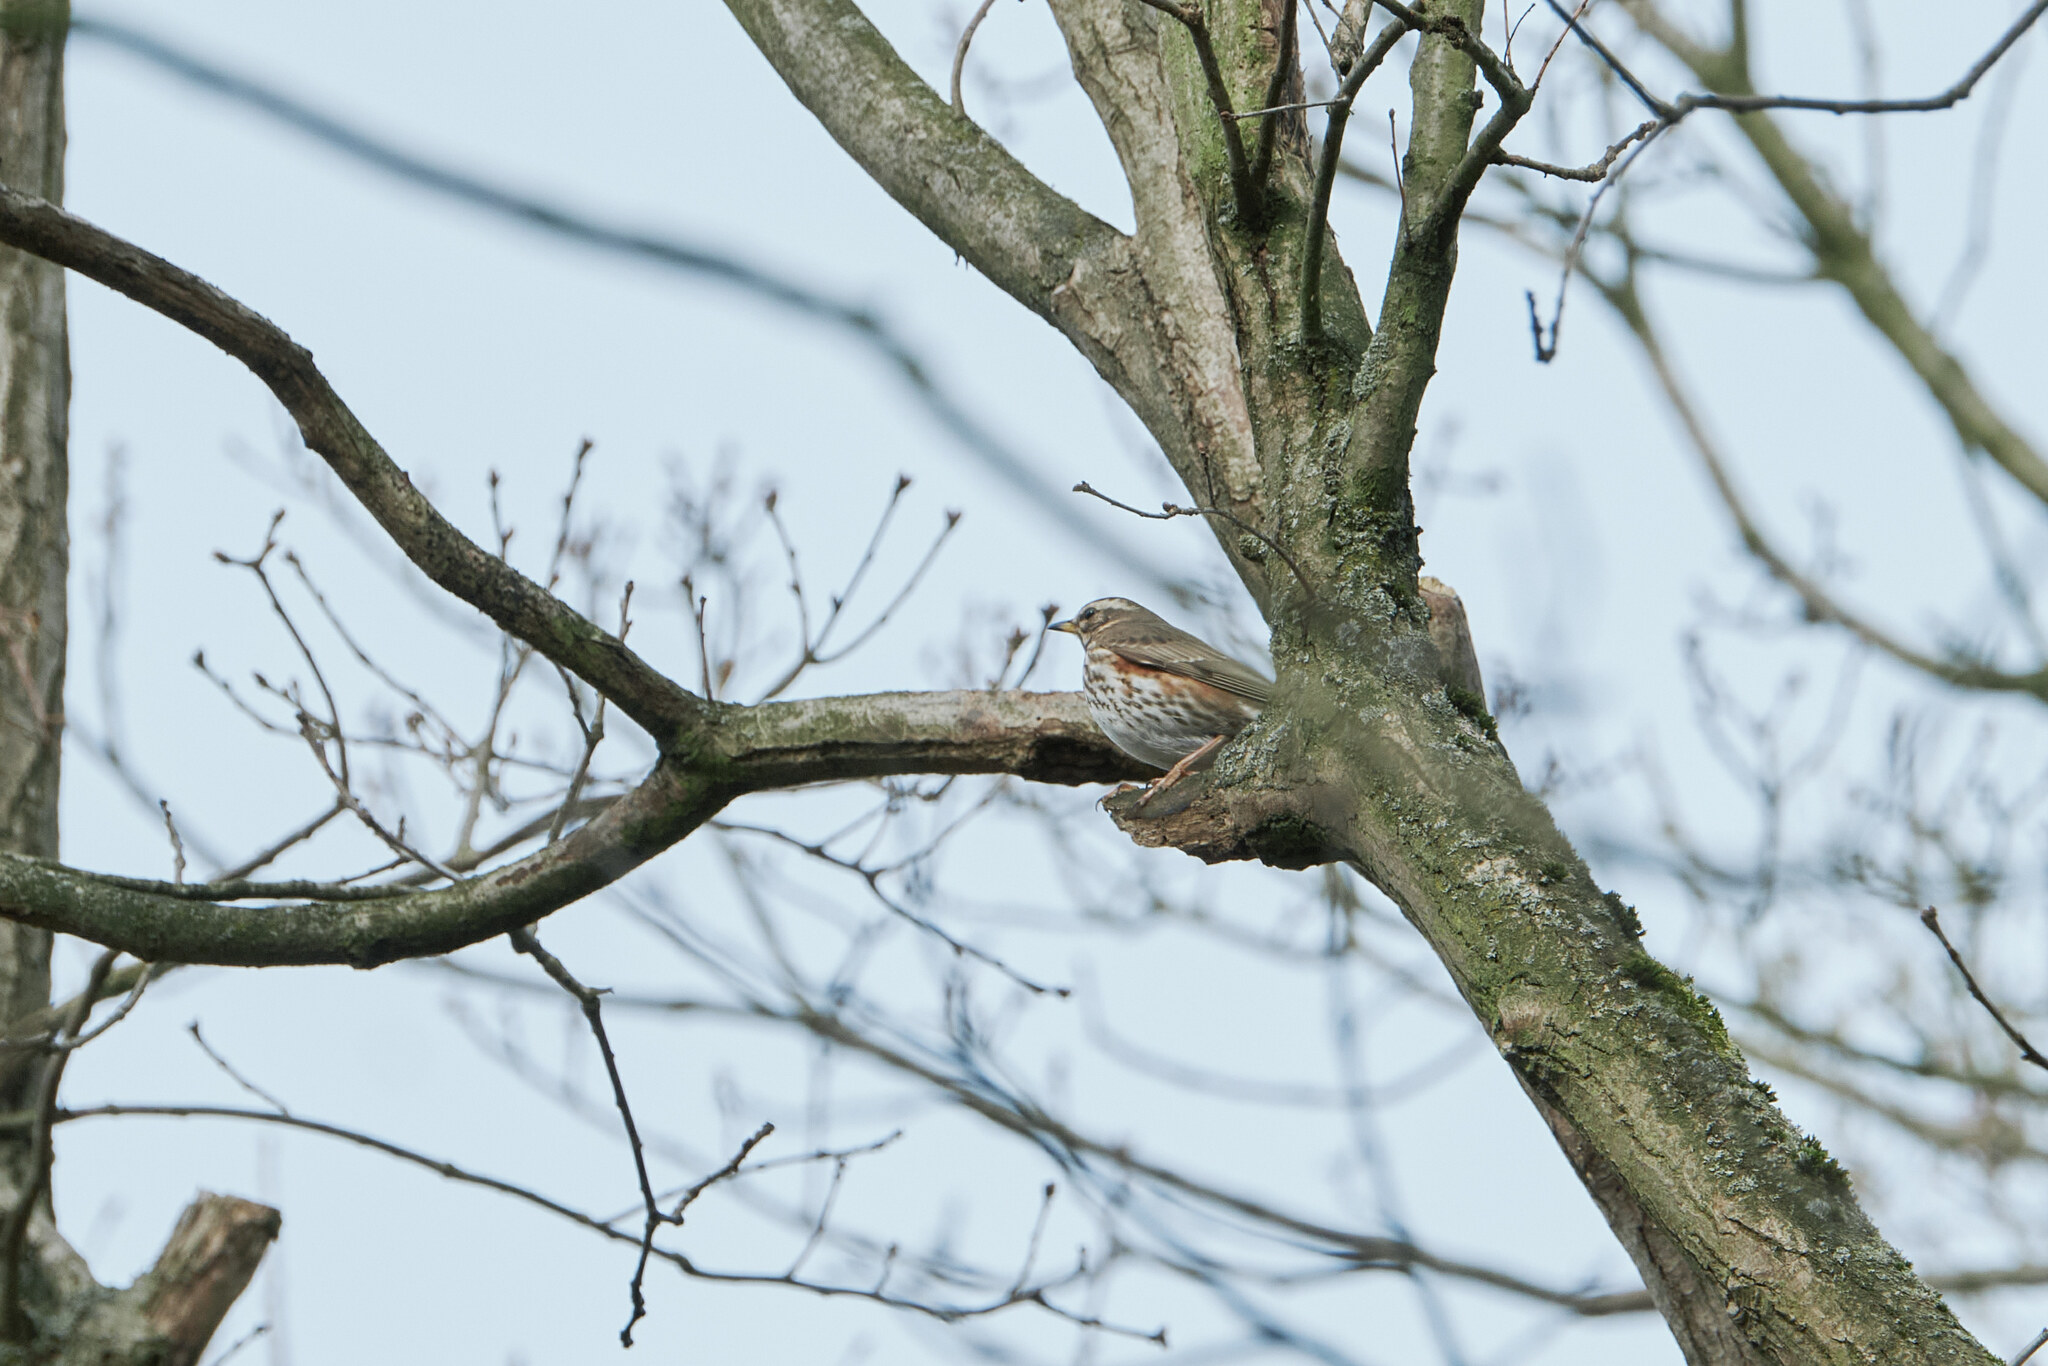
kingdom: Animalia
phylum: Chordata
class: Aves
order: Passeriformes
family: Turdidae
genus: Turdus
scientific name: Turdus iliacus
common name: Redwing
